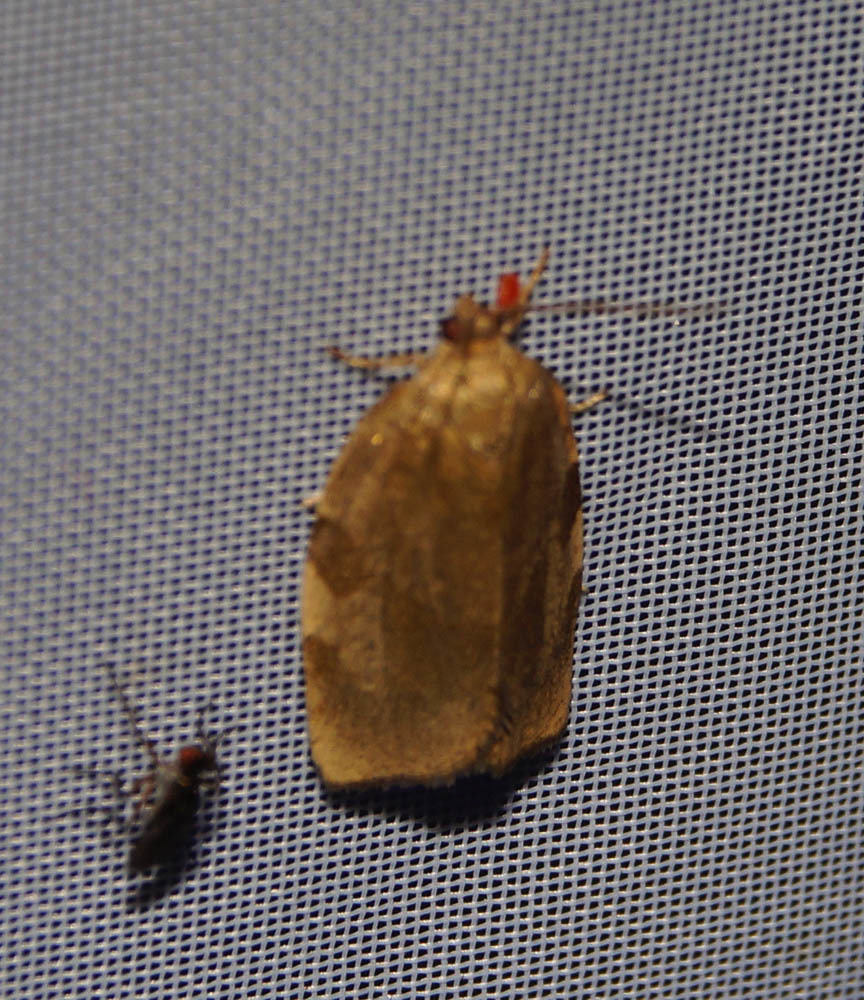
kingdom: Animalia
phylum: Arthropoda
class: Insecta
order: Lepidoptera
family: Tortricidae
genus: Choristoneura
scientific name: Choristoneura hebenstreitella
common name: Great twist
